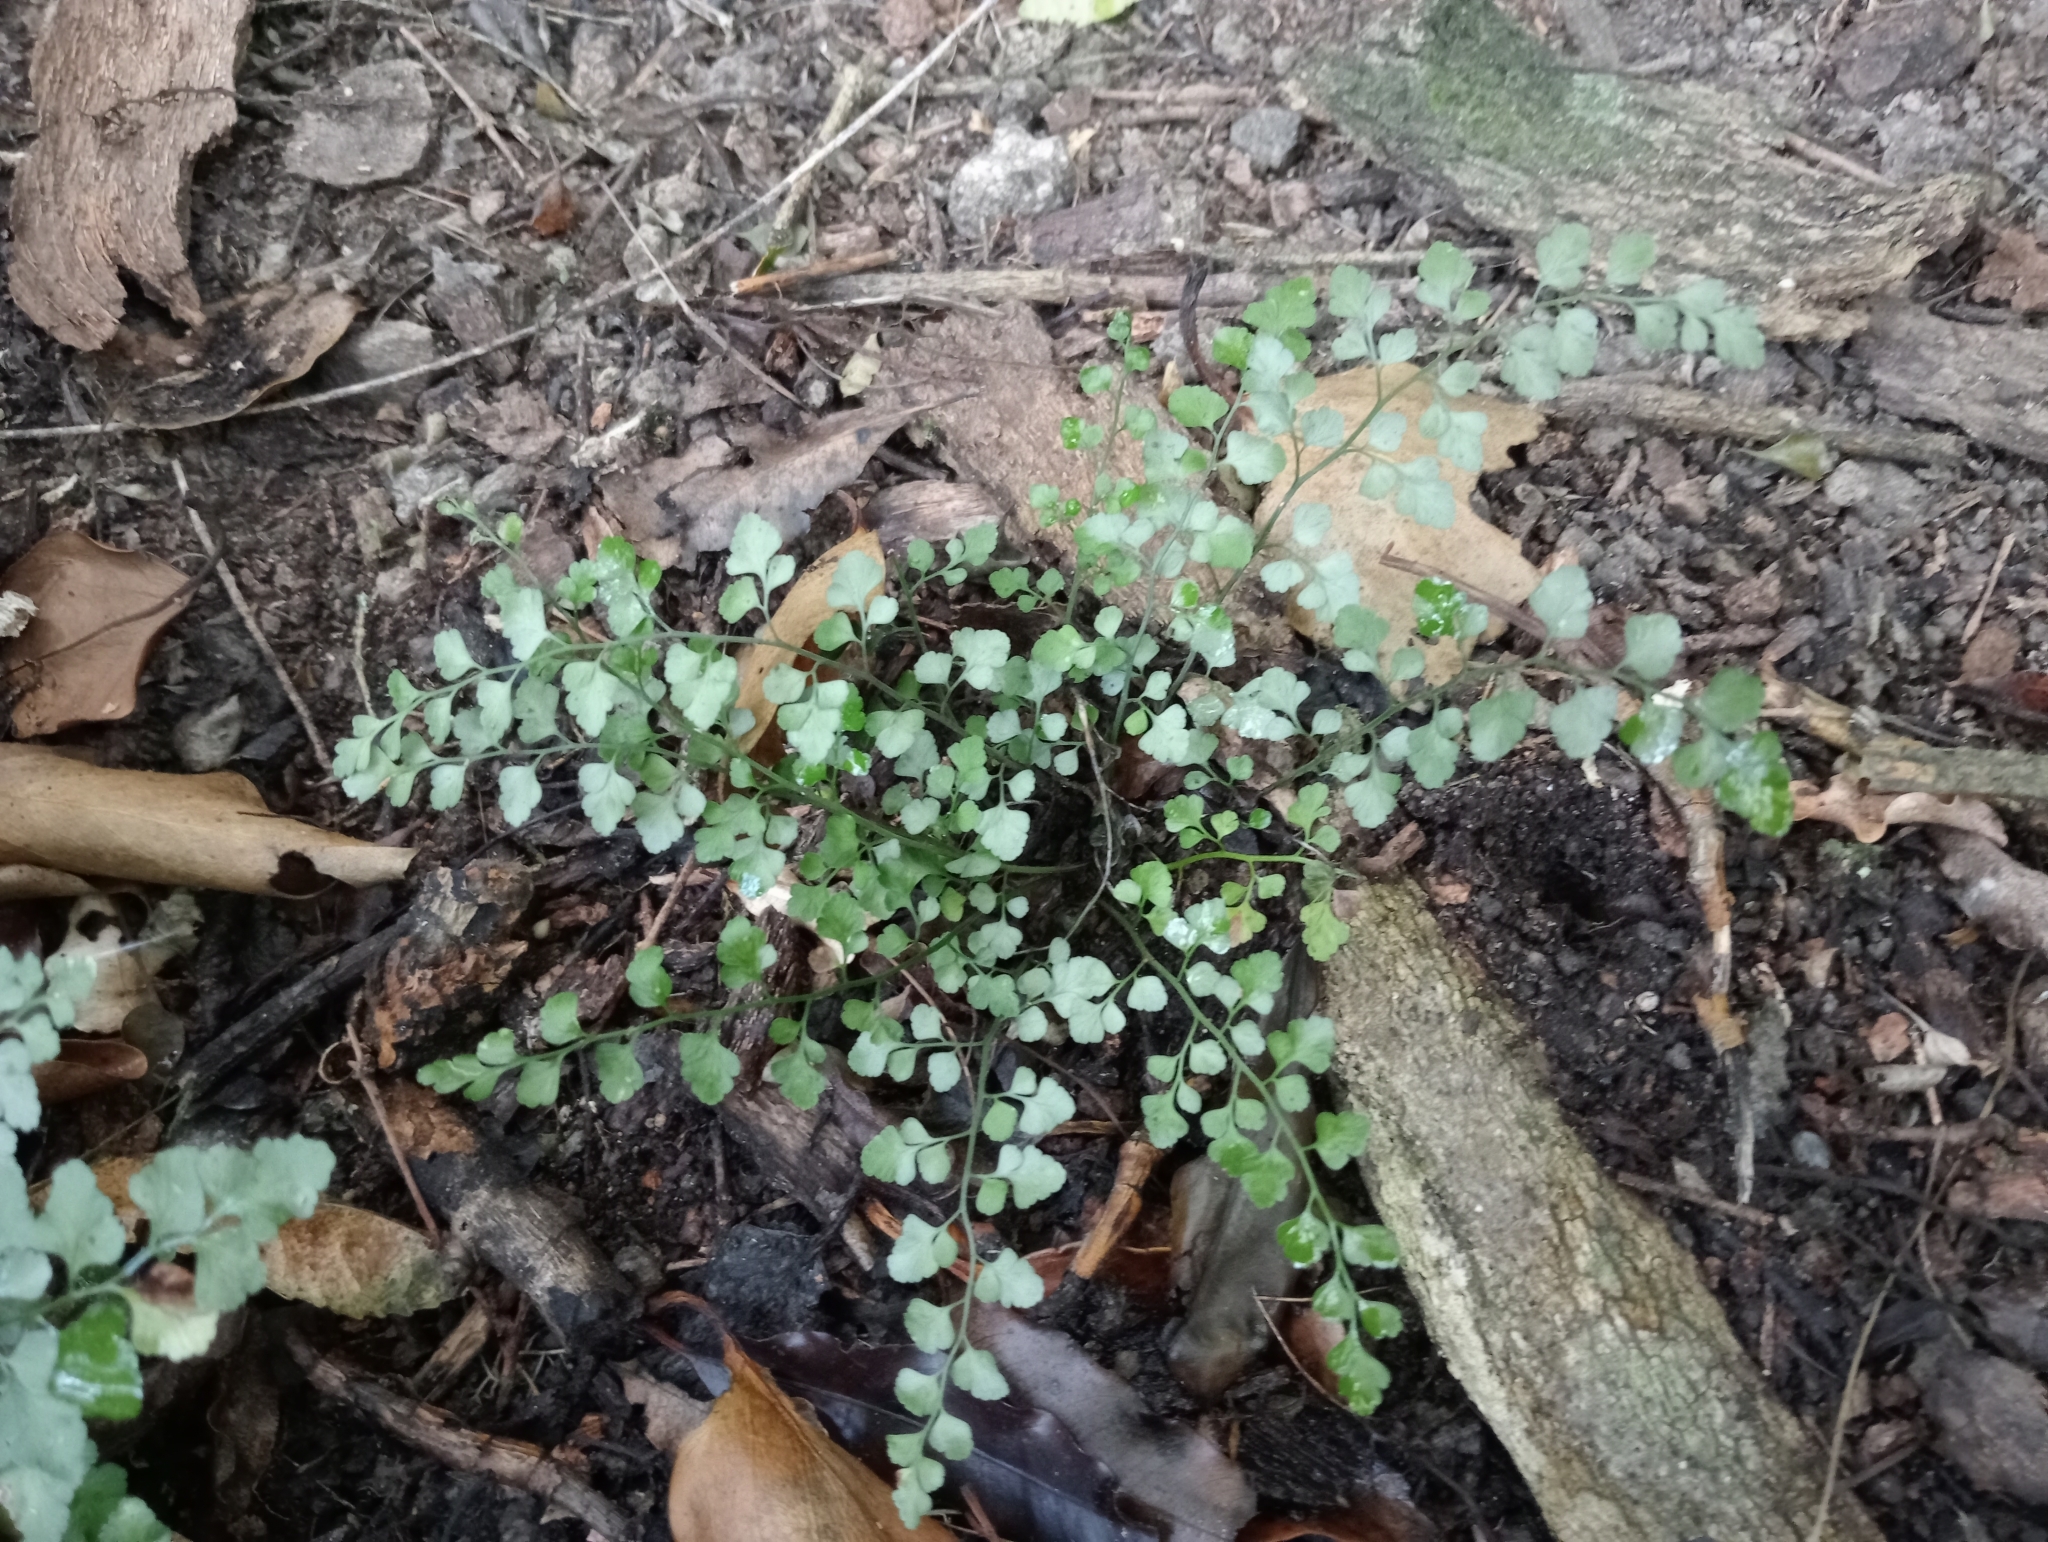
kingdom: Plantae
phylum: Tracheophyta
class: Polypodiopsida
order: Polypodiales
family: Aspleniaceae
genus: Asplenium
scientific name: Asplenium hookerianum
